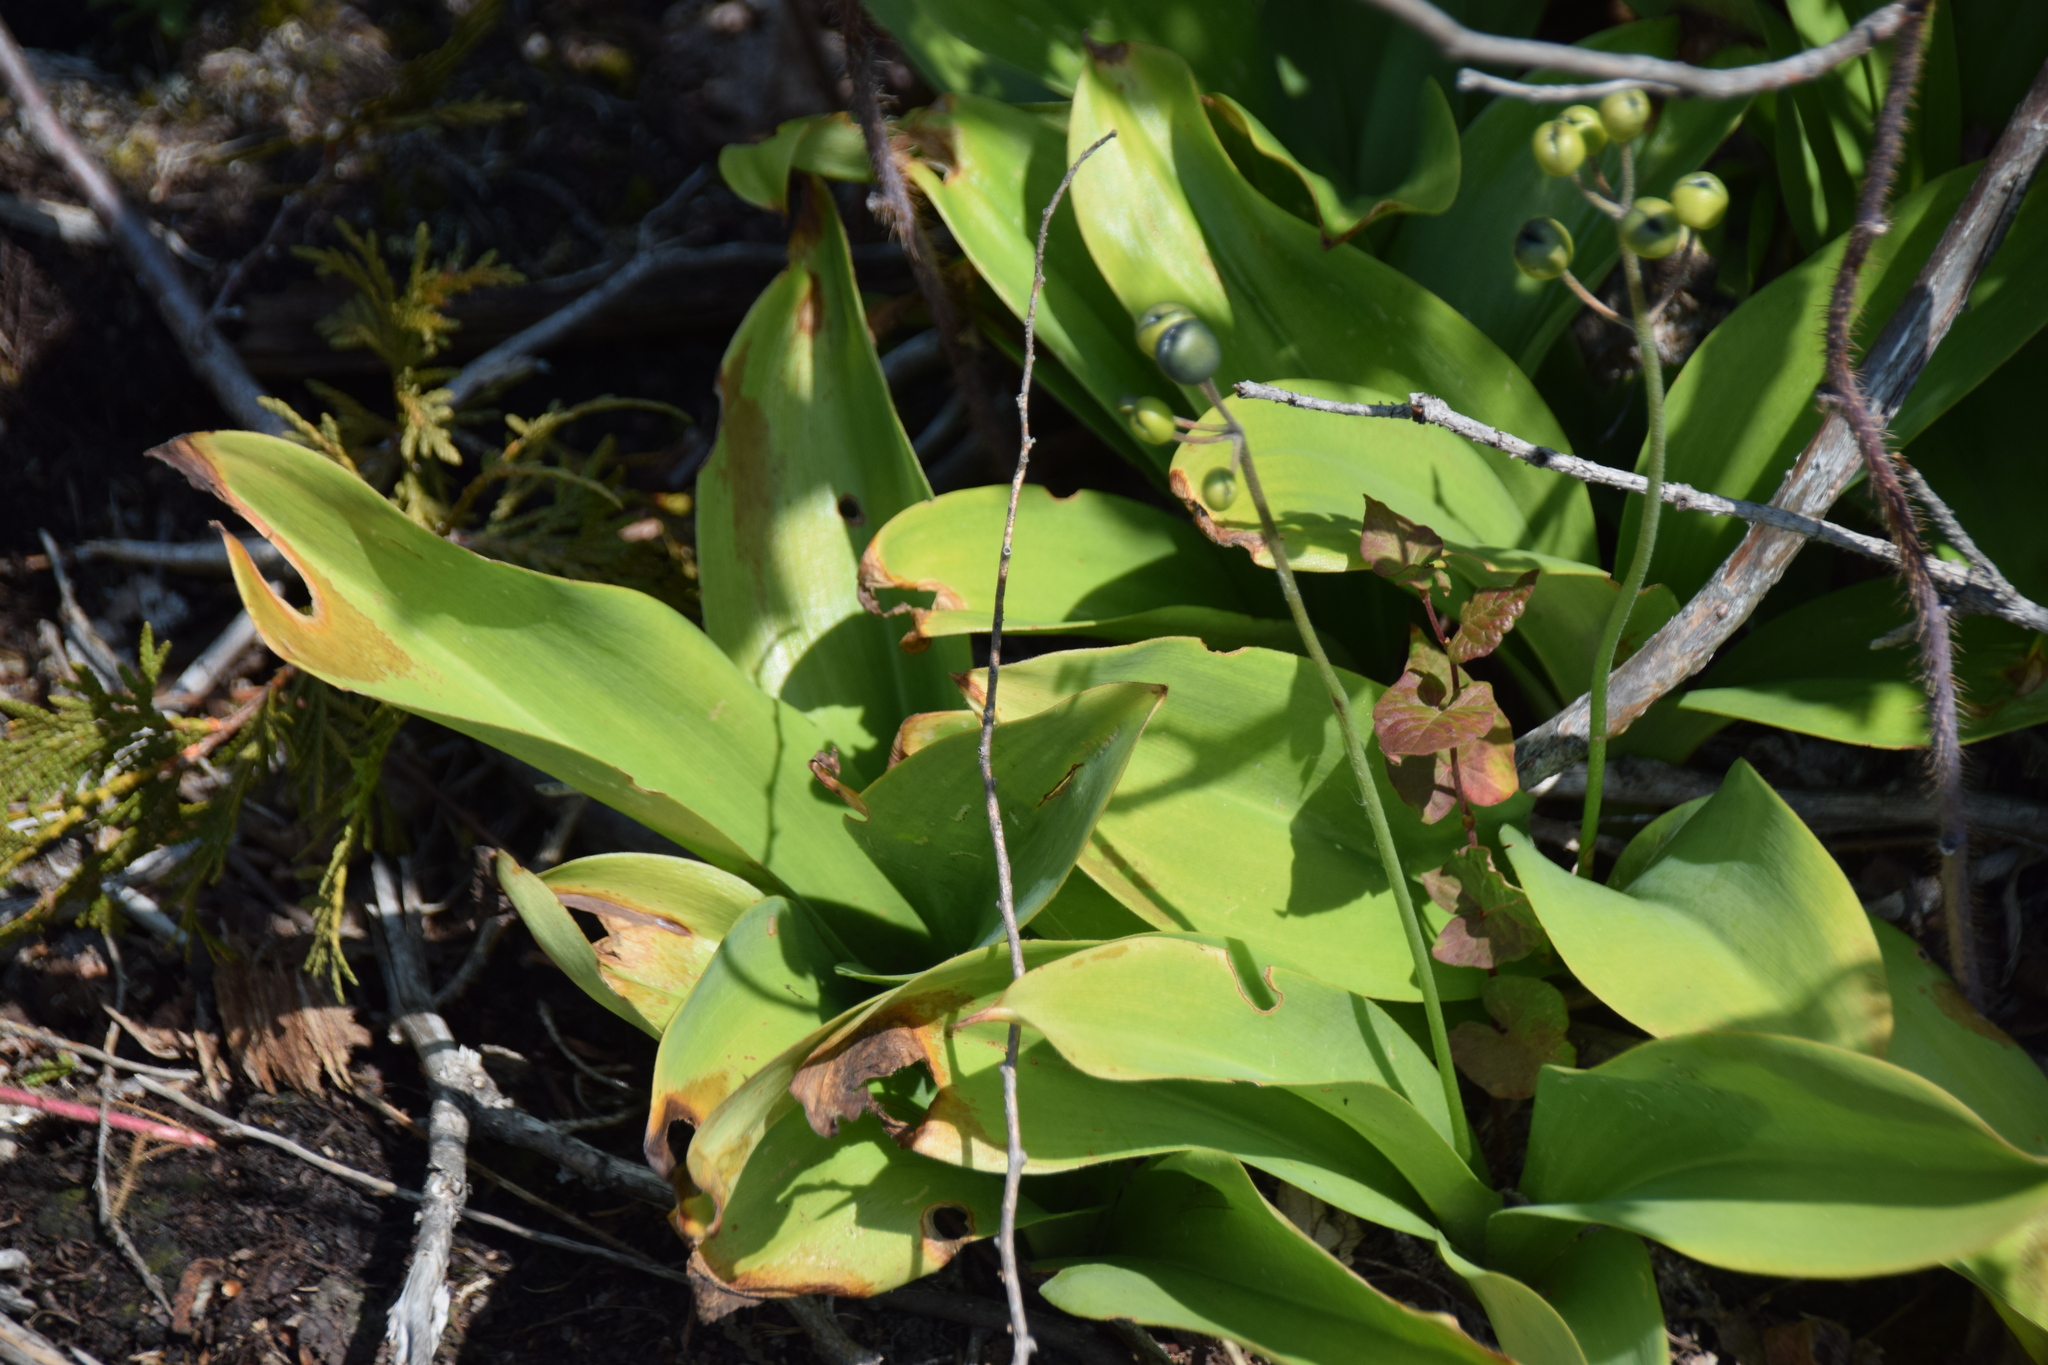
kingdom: Plantae
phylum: Tracheophyta
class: Liliopsida
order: Liliales
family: Liliaceae
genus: Clintonia
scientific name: Clintonia borealis
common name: Yellow clintonia
